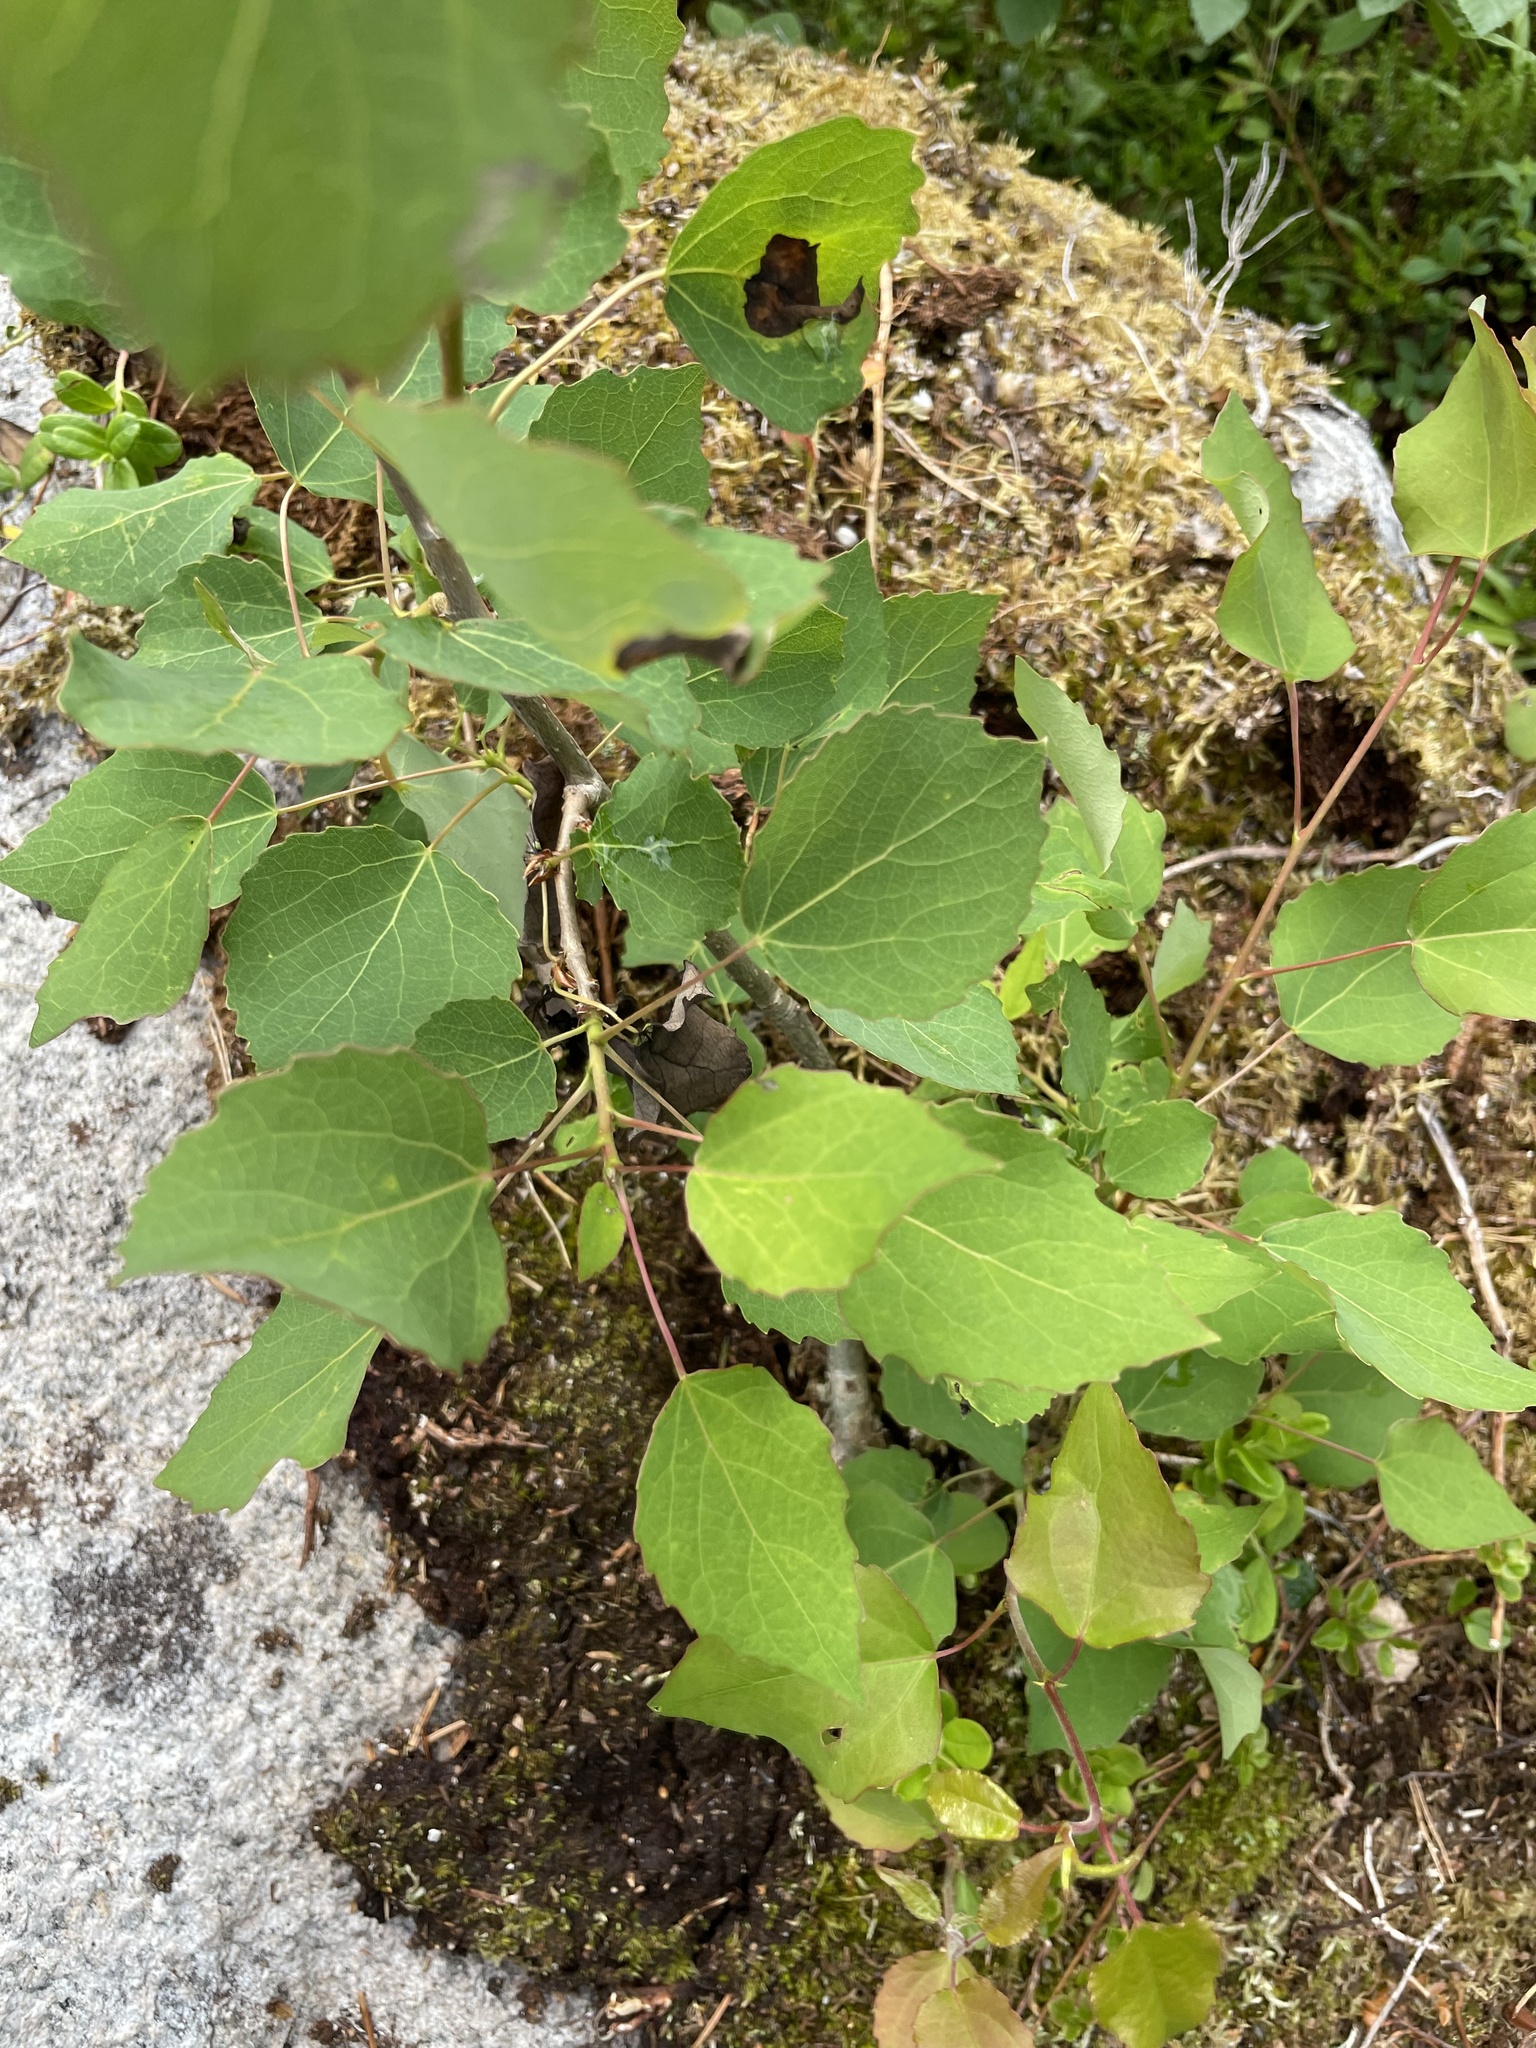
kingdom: Plantae
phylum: Tracheophyta
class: Magnoliopsida
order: Malpighiales
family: Salicaceae
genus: Populus
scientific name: Populus tremula
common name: European aspen
